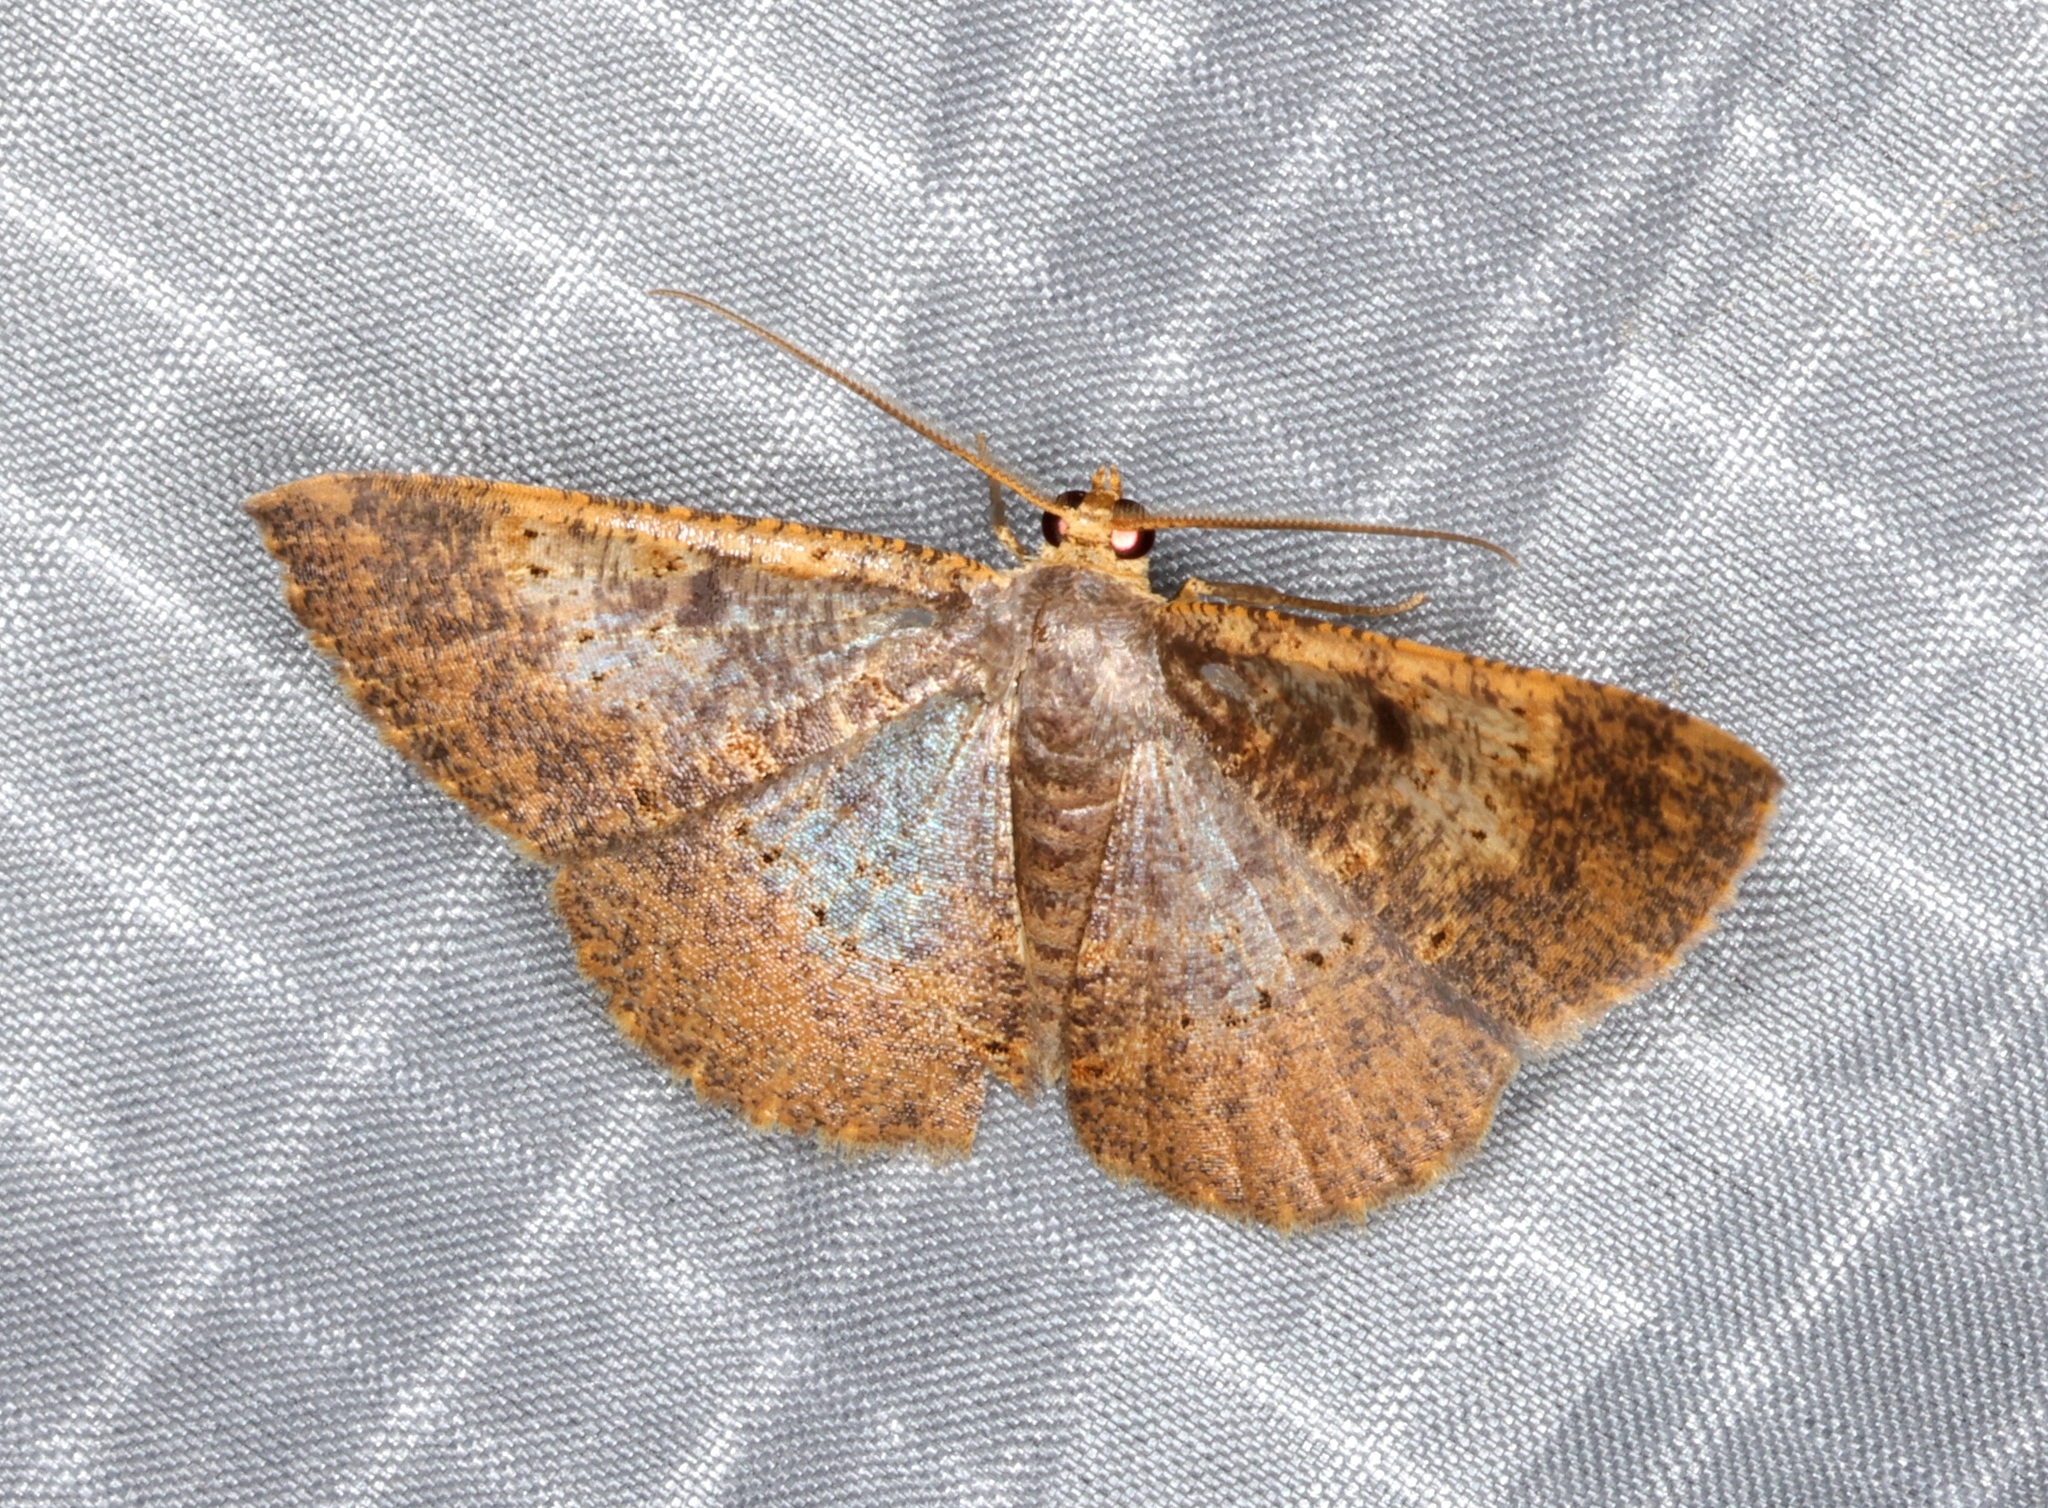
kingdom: Animalia
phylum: Arthropoda
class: Insecta
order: Lepidoptera
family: Geometridae
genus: Peratophyga
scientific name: Peratophyga crista
